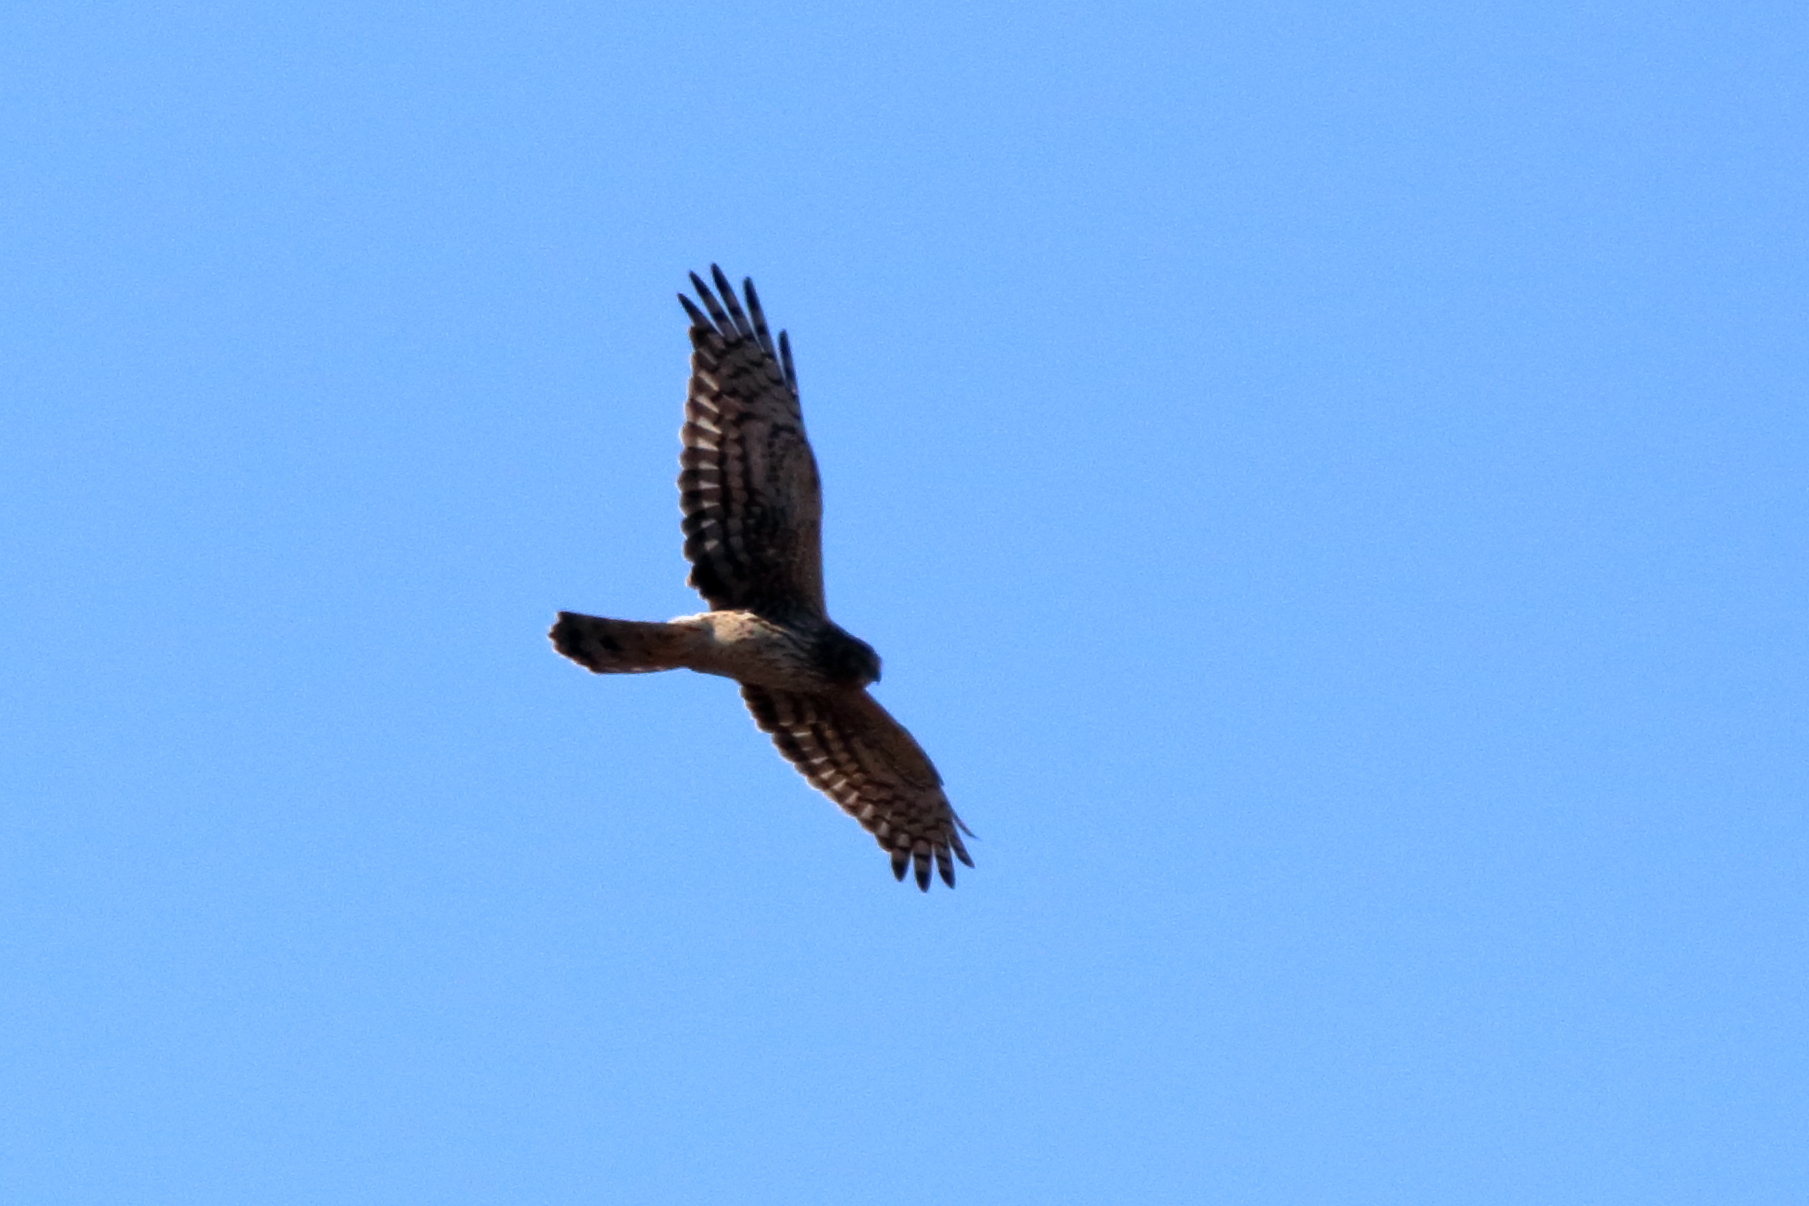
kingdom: Animalia
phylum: Chordata
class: Aves
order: Accipitriformes
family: Accipitridae
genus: Circus
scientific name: Circus cyaneus
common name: Hen harrier
